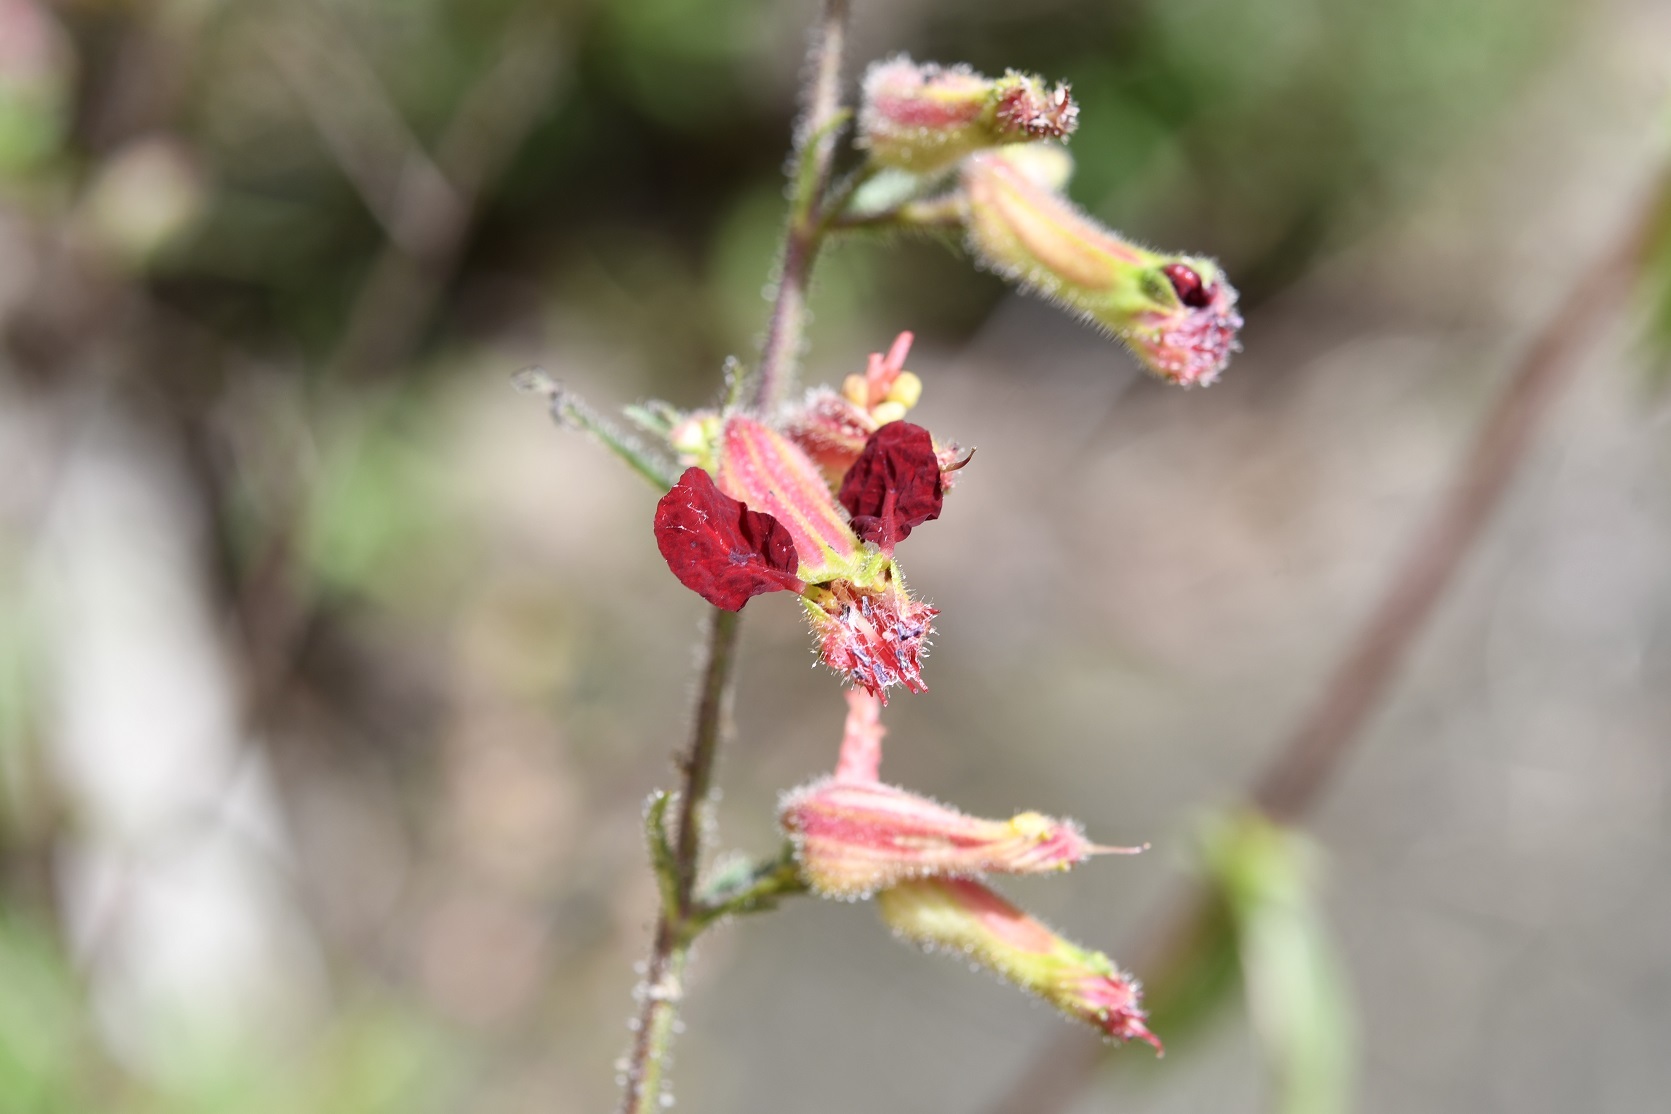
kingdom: Plantae
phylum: Tracheophyta
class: Magnoliopsida
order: Myrtales
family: Lythraceae
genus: Cuphea
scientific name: Cuphea hookeriana
